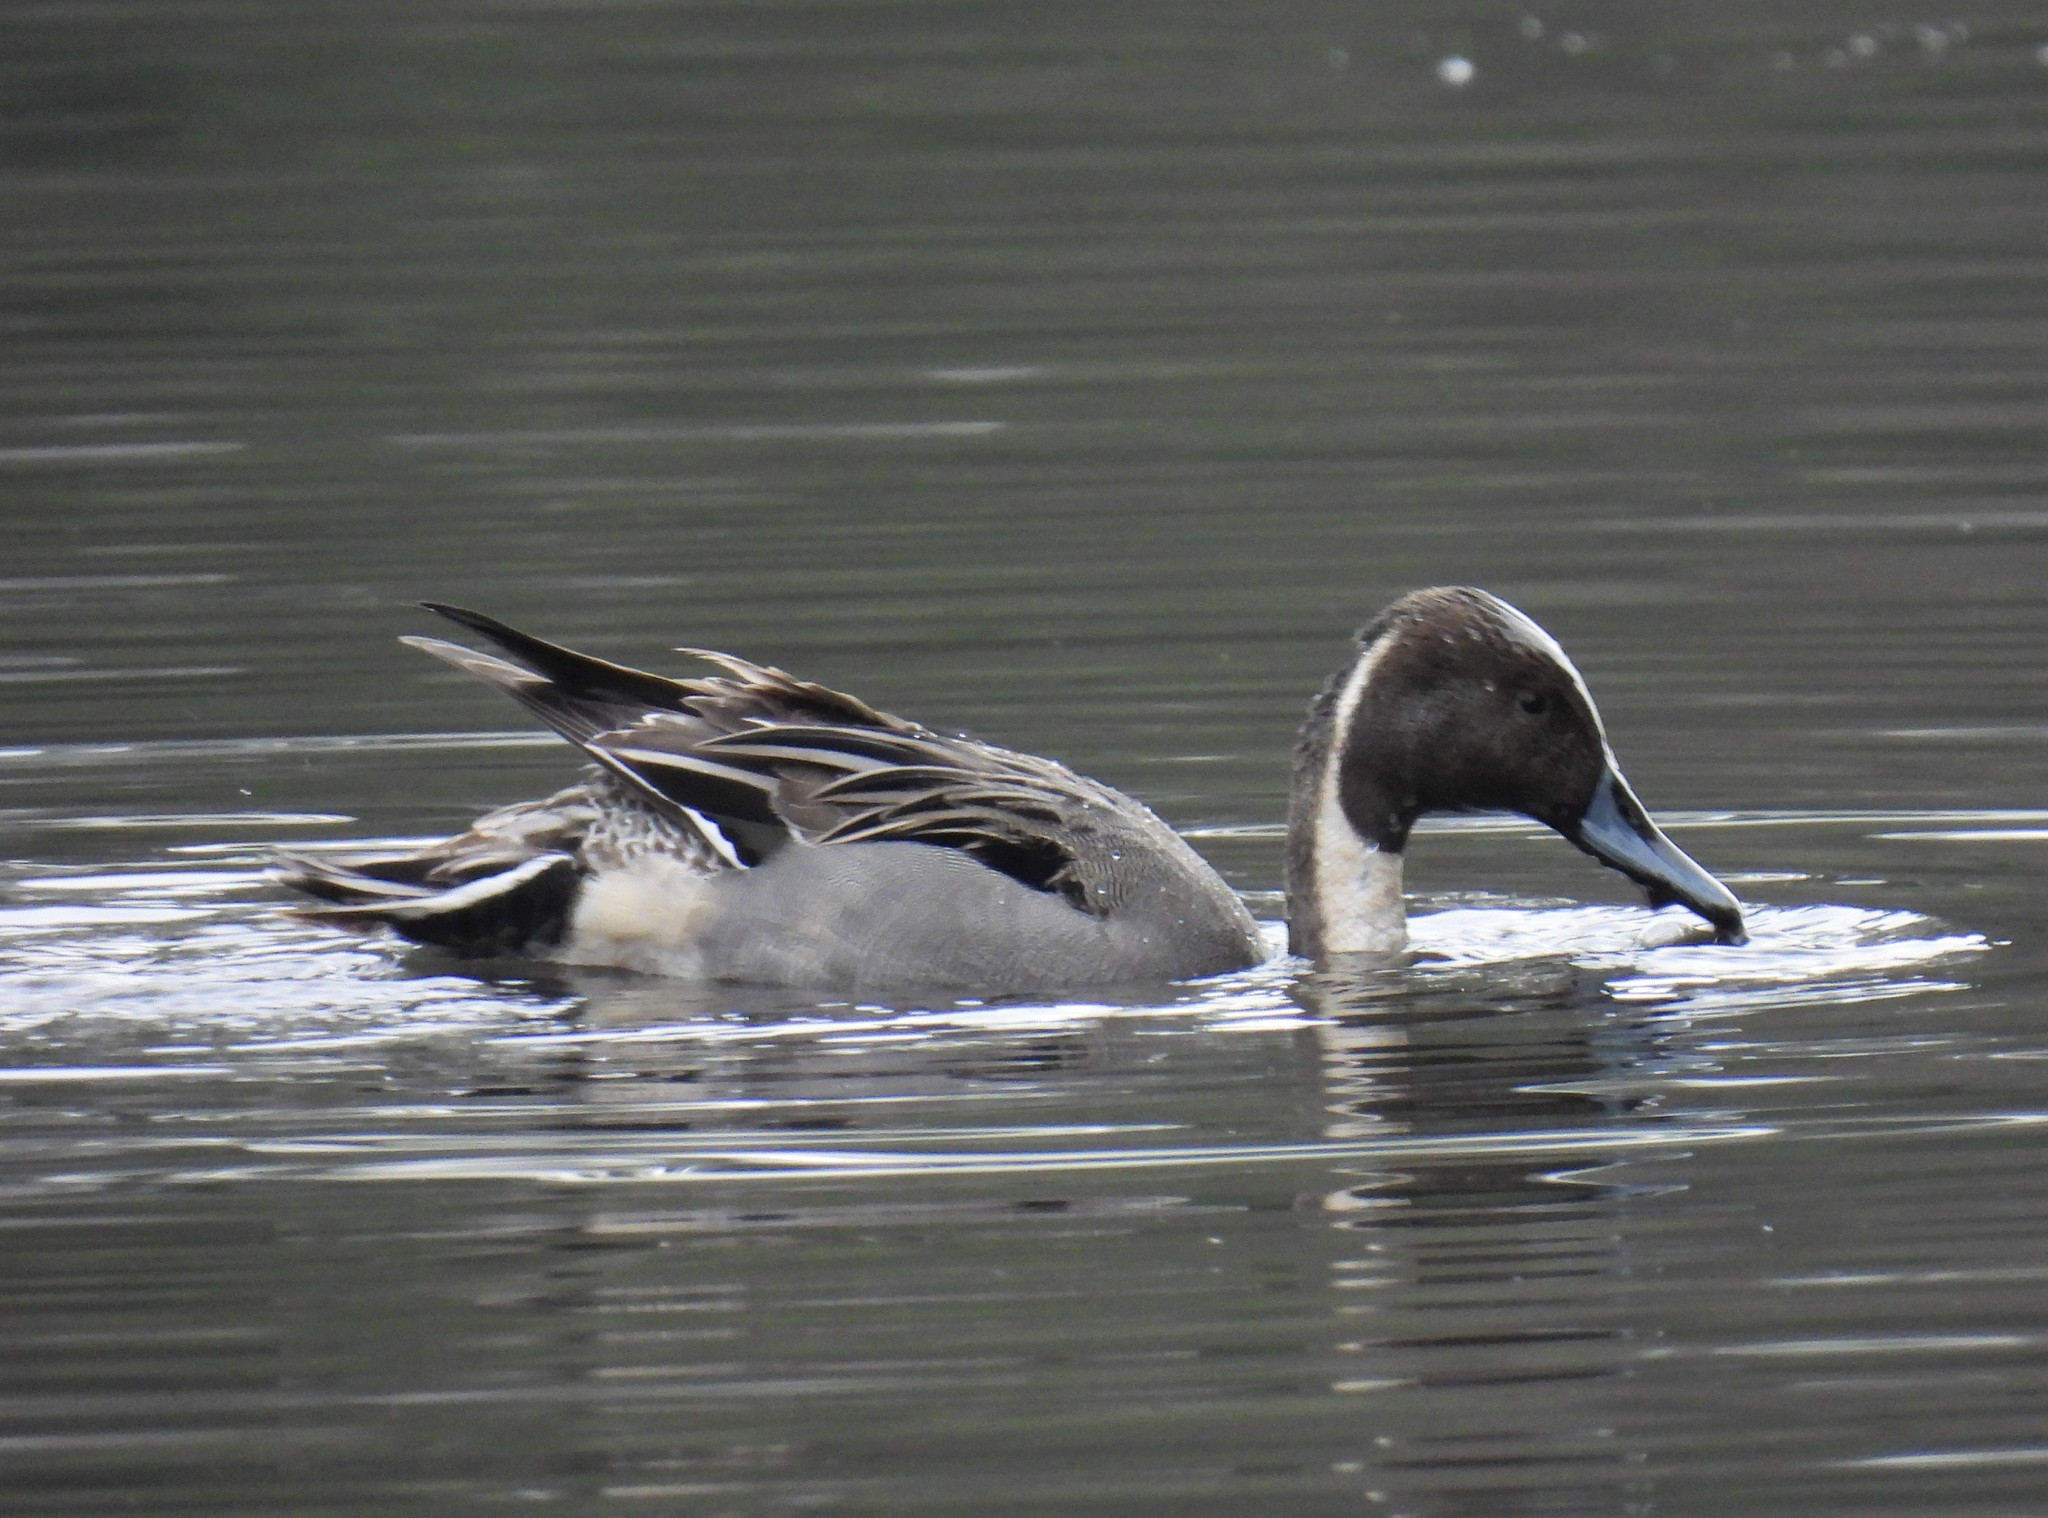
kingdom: Animalia
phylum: Chordata
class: Aves
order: Anseriformes
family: Anatidae
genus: Anas
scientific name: Anas acuta
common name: Northern pintail
